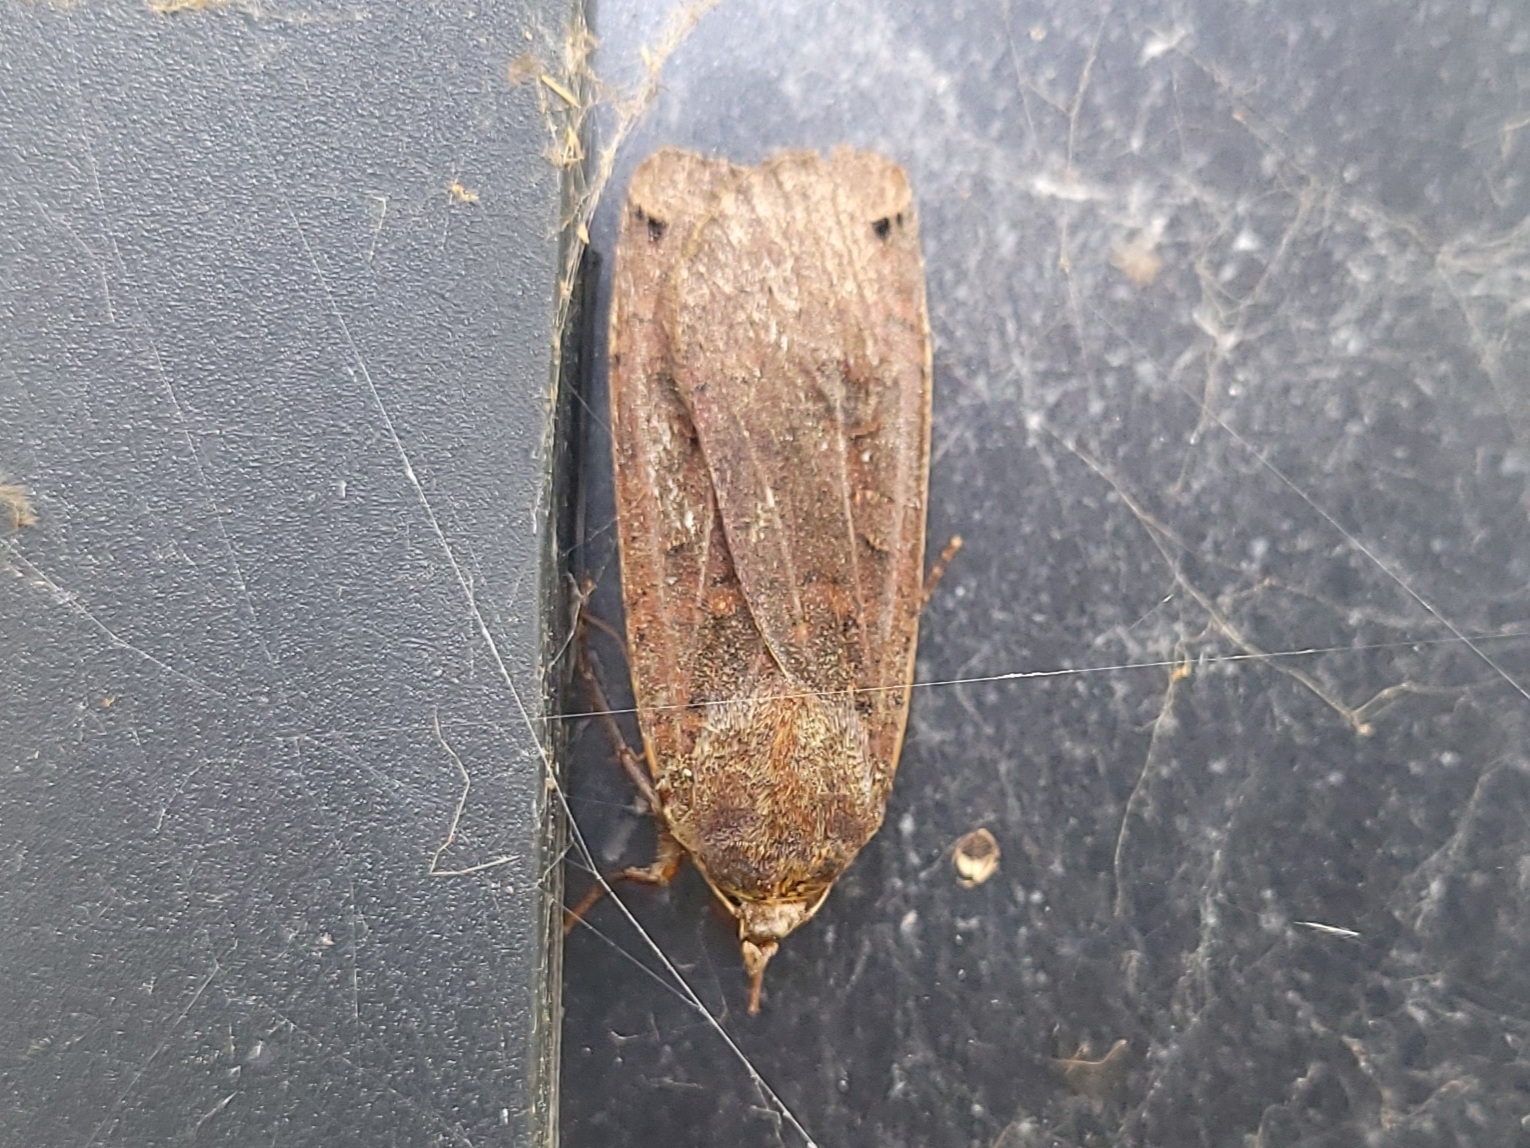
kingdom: Animalia
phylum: Arthropoda
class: Insecta
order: Lepidoptera
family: Noctuidae
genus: Noctua
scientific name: Noctua pronuba
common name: Large yellow underwing
